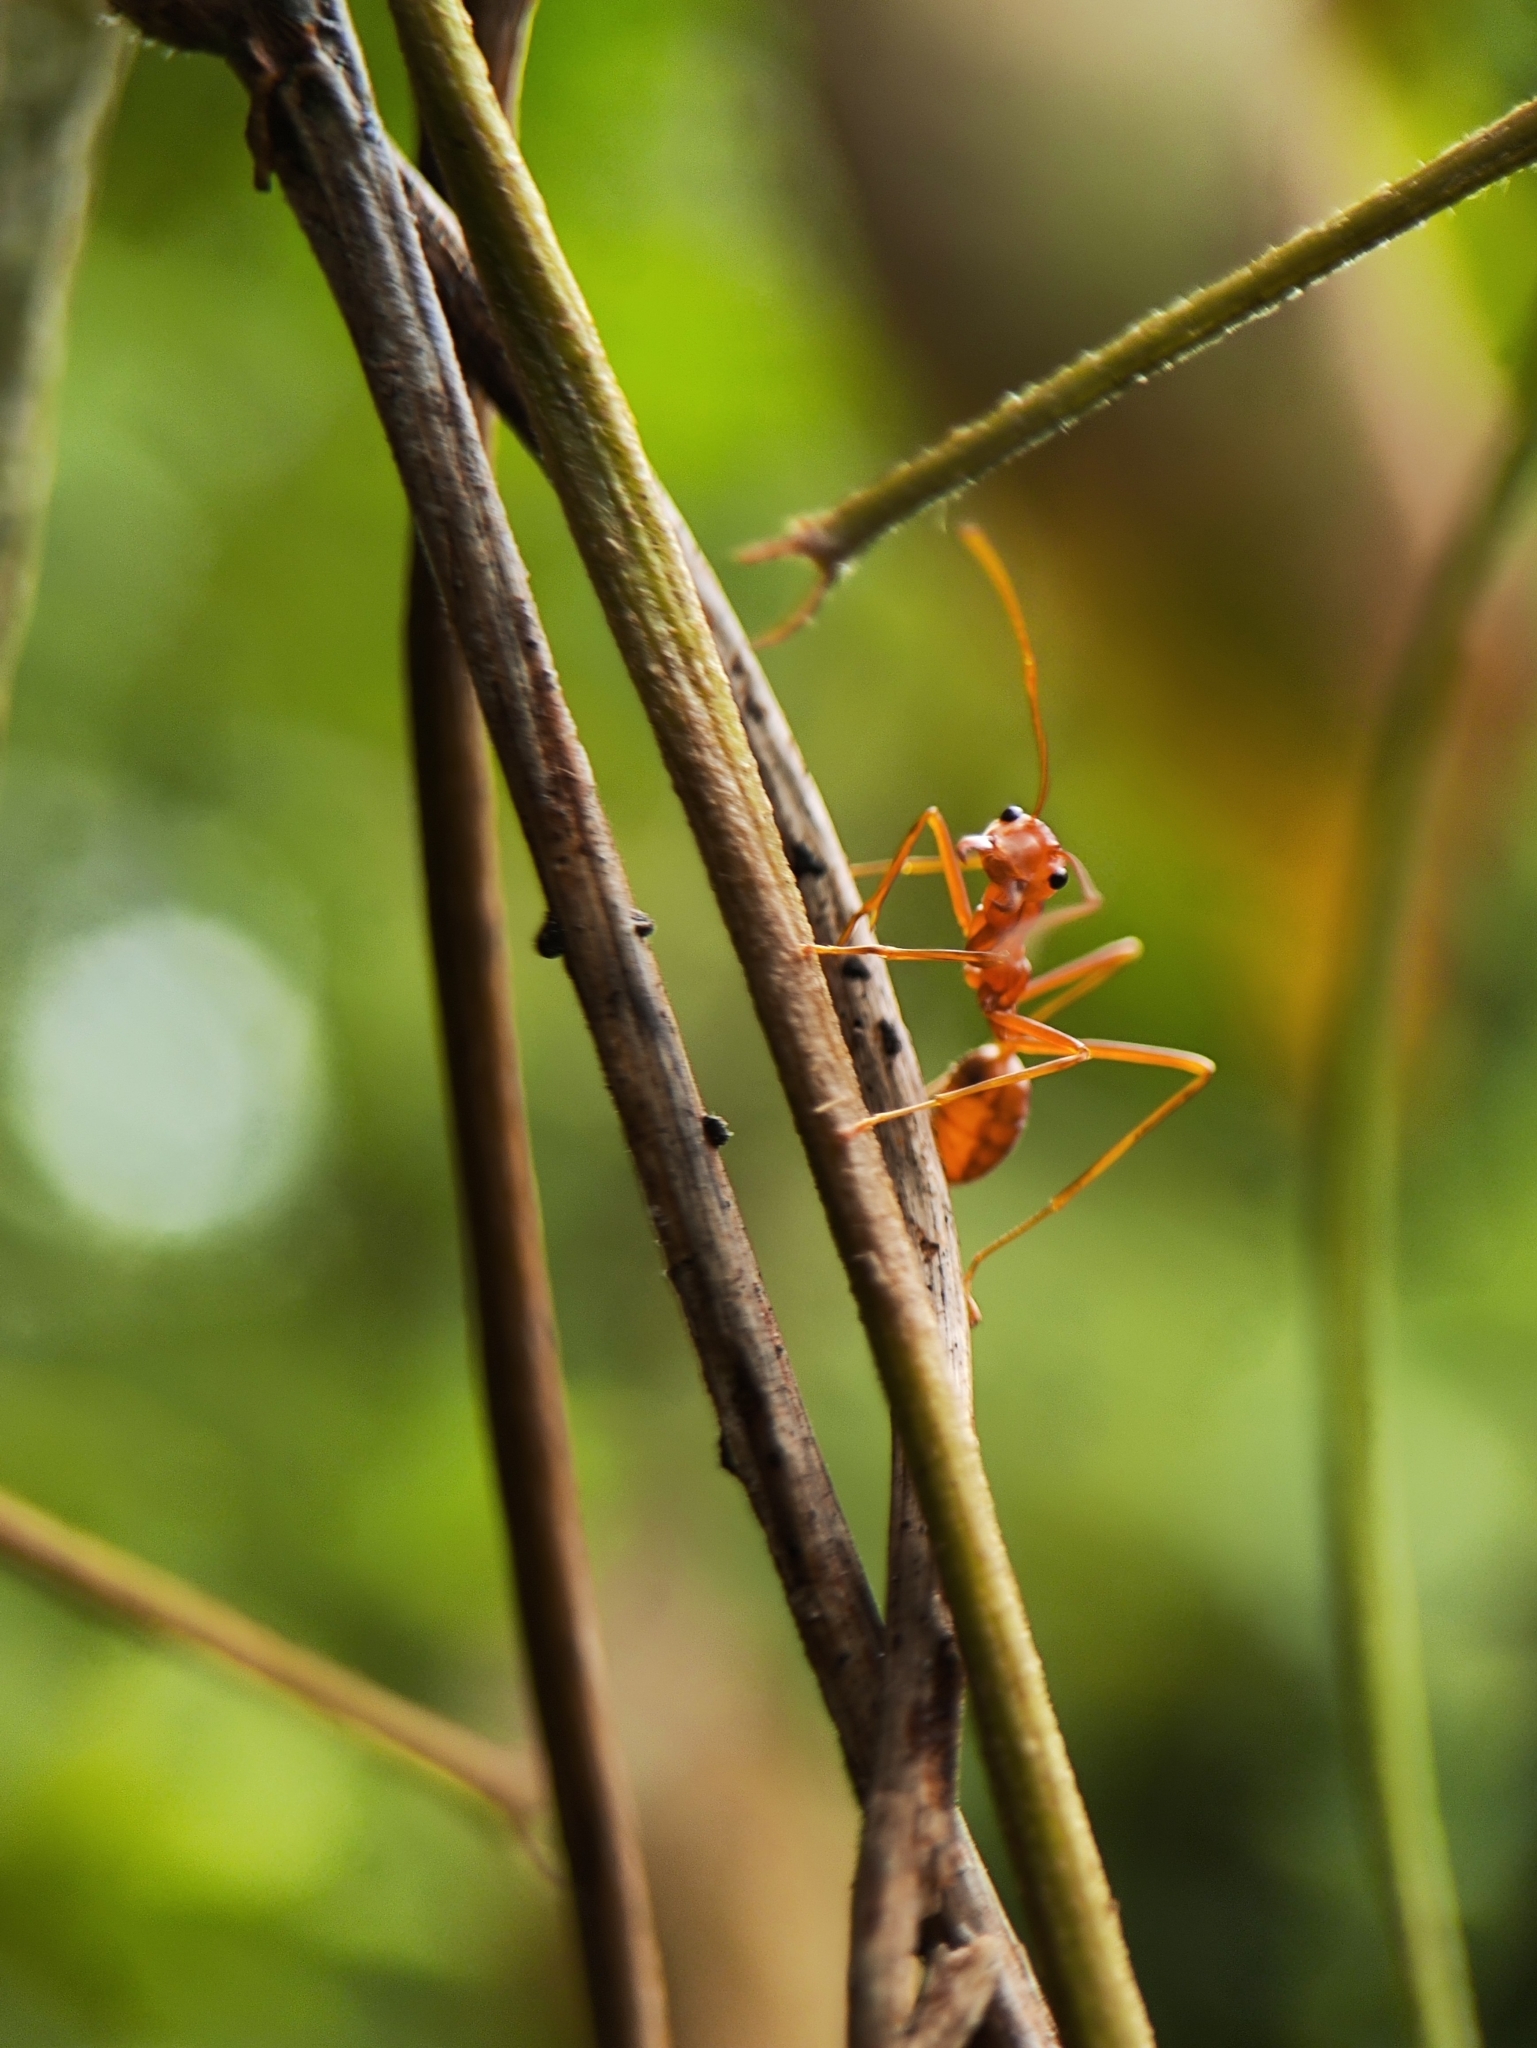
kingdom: Animalia
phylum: Arthropoda
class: Insecta
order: Hymenoptera
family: Formicidae
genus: Oecophylla
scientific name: Oecophylla smaragdina
